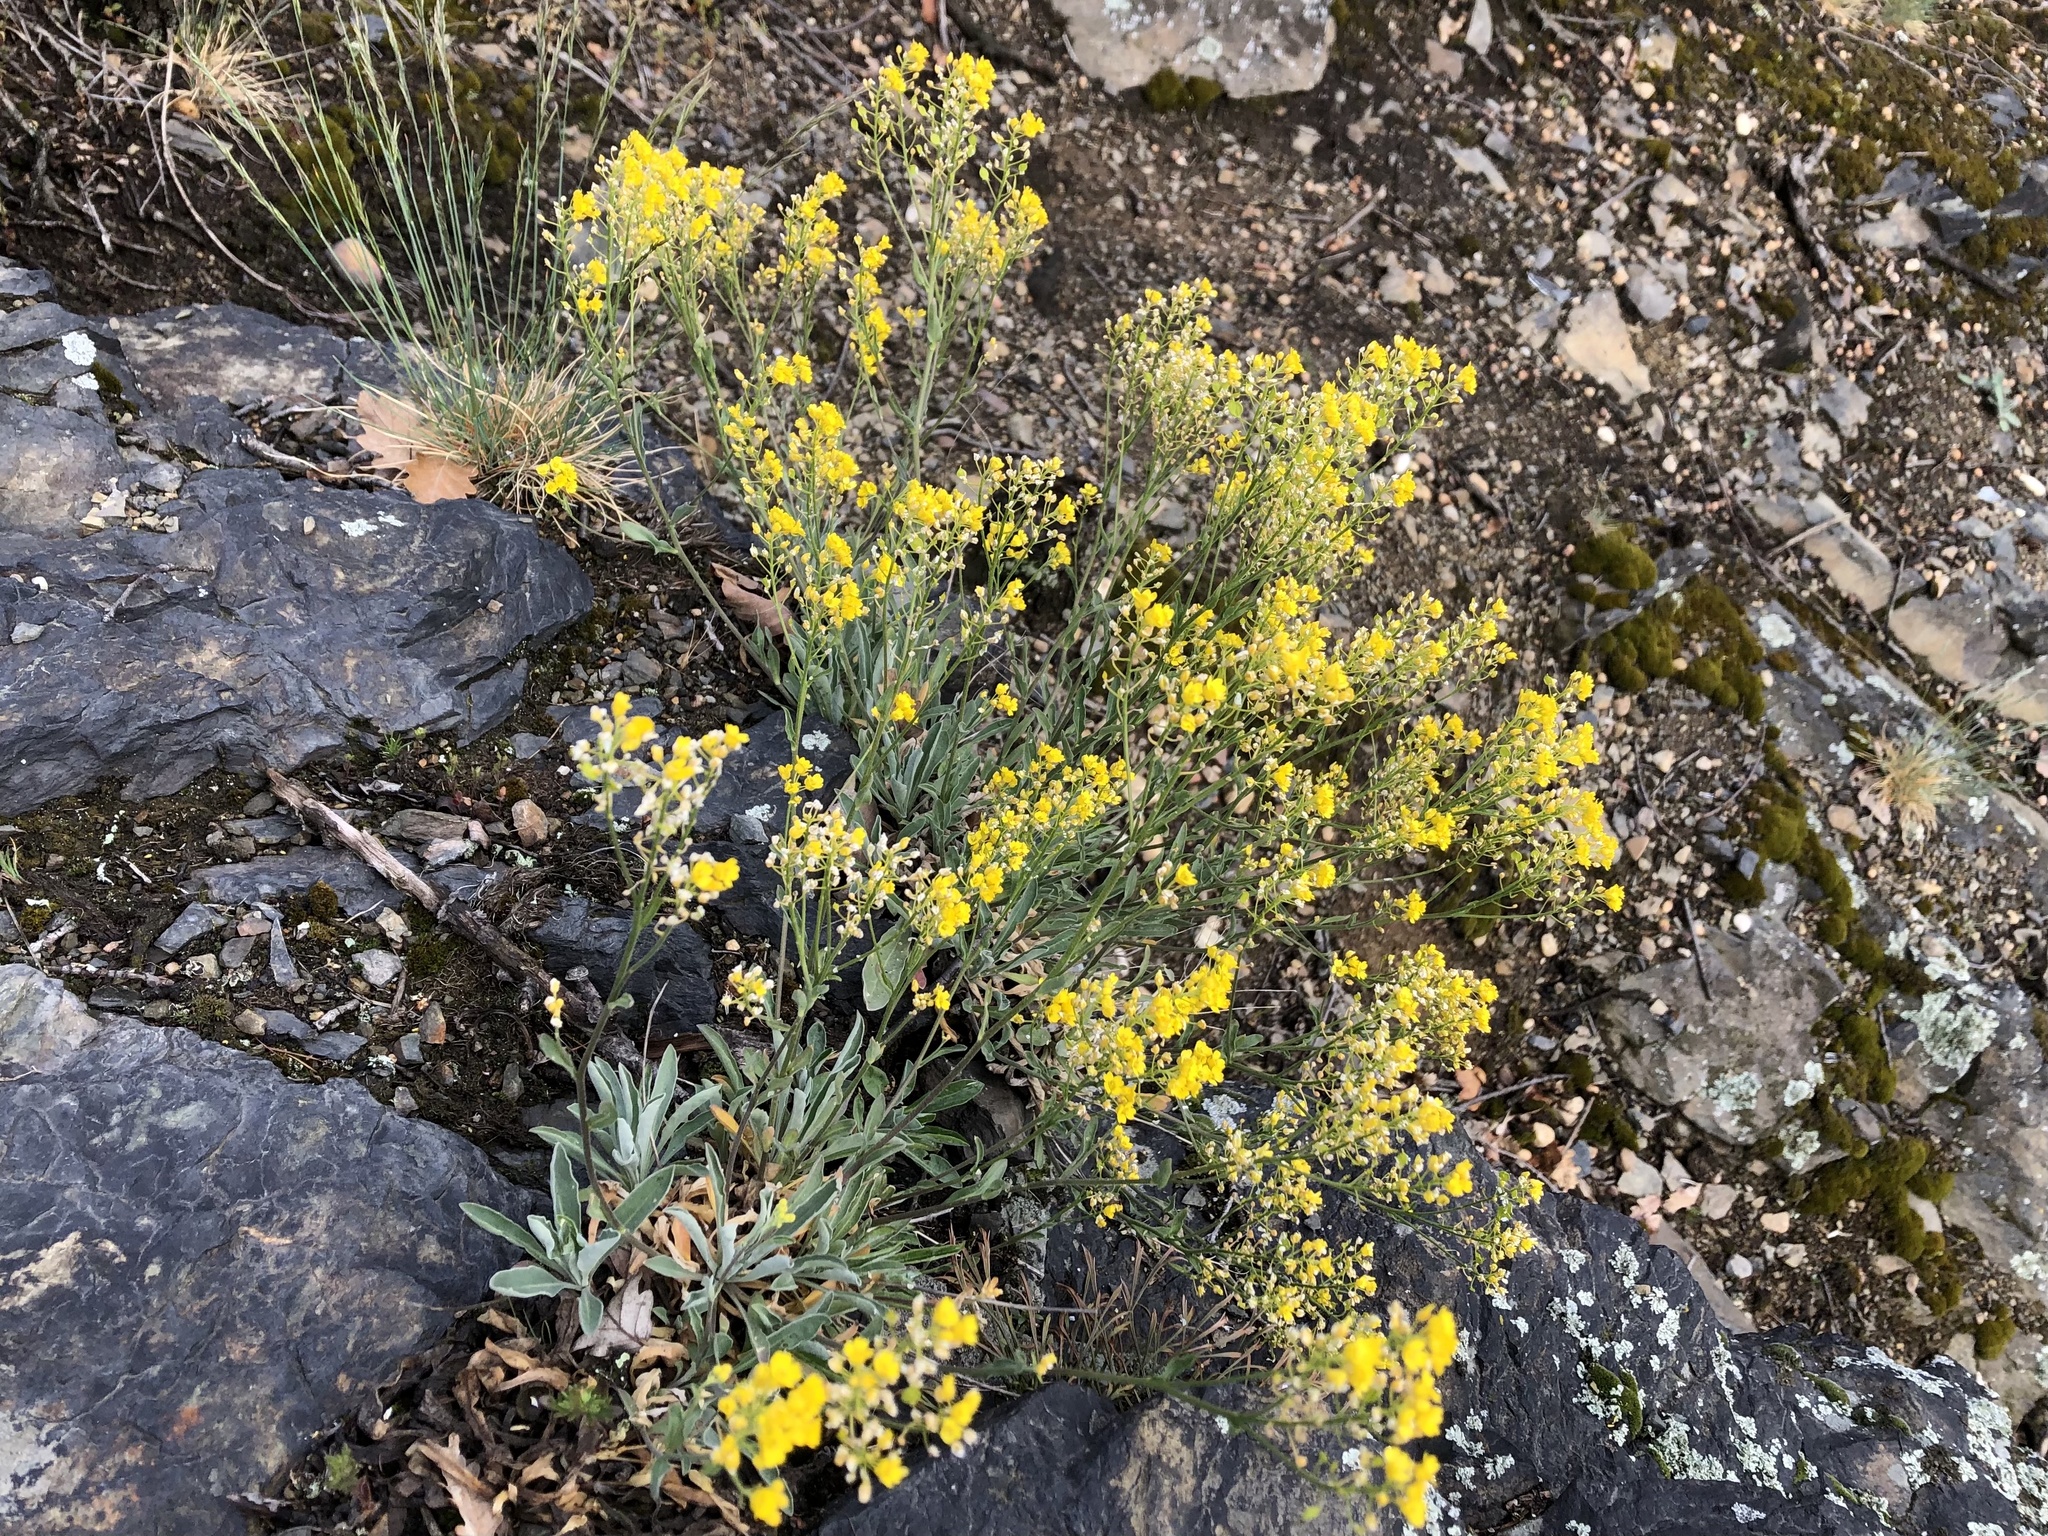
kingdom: Plantae
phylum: Tracheophyta
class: Magnoliopsida
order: Brassicales
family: Brassicaceae
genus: Aurinia
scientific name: Aurinia saxatilis
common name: Golden-tuft alyssum
